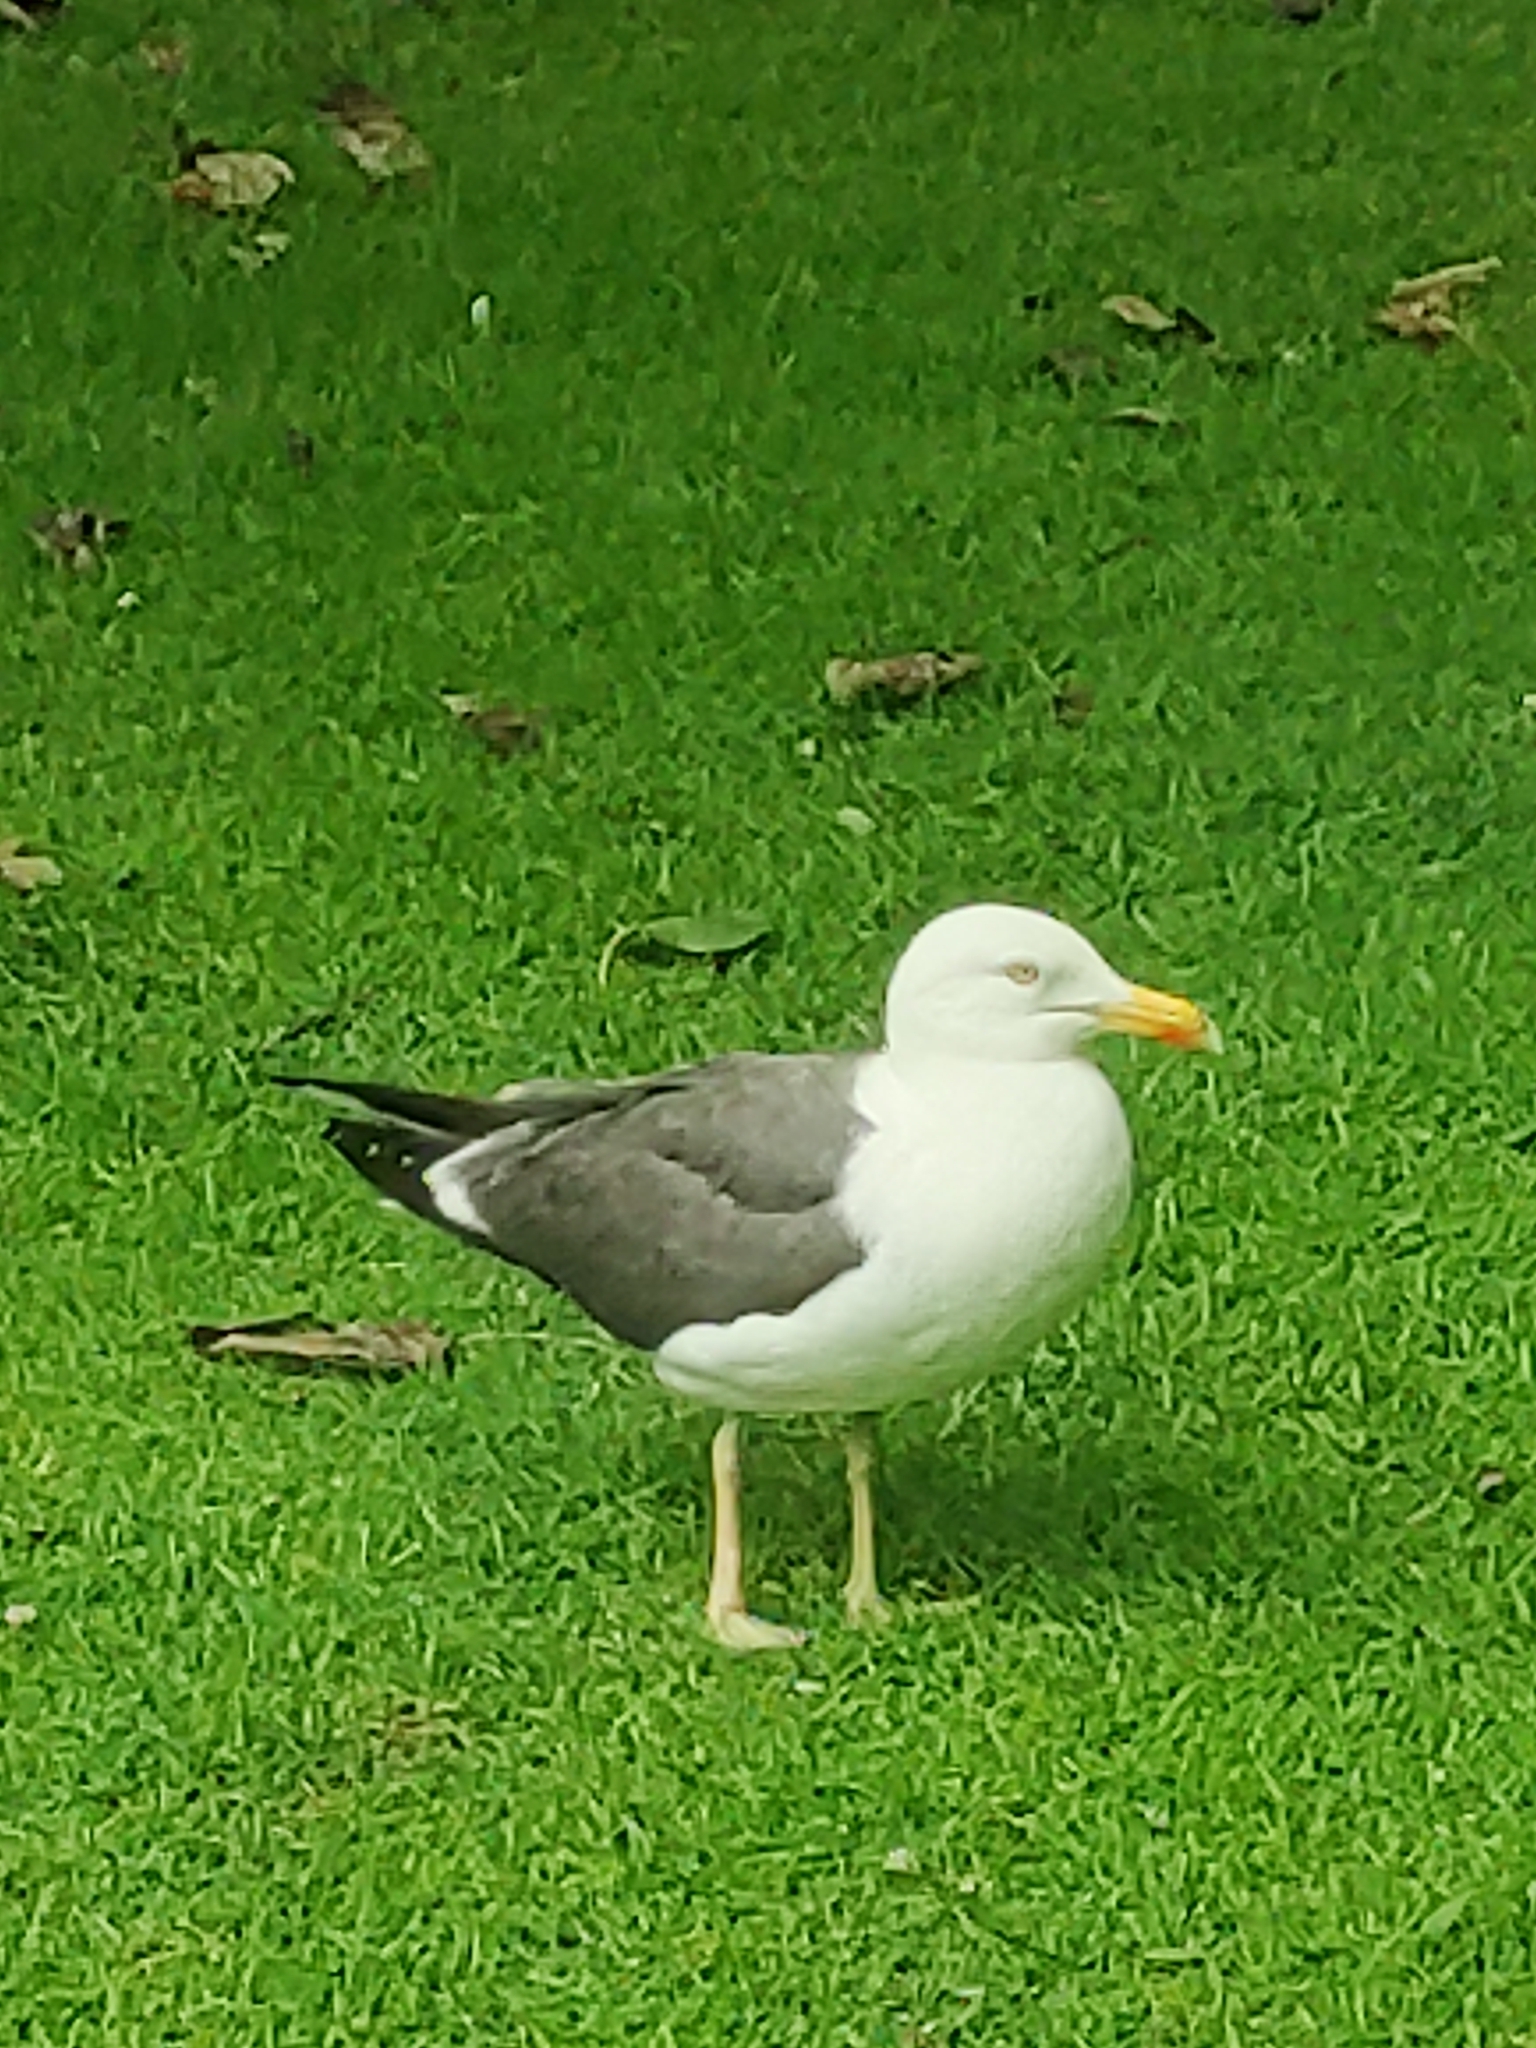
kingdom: Animalia
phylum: Chordata
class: Aves
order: Charadriiformes
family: Laridae
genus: Larus
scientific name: Larus fuscus
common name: Lesser black-backed gull
